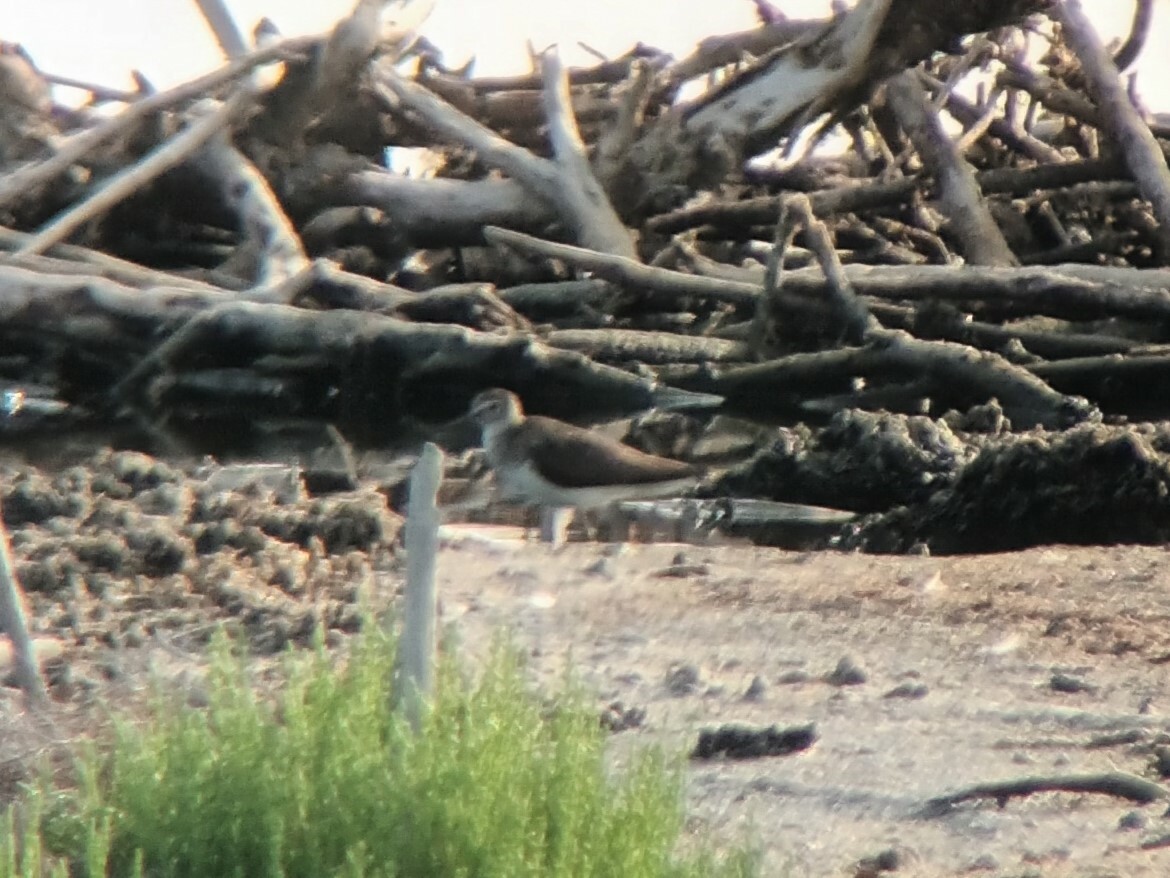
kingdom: Animalia
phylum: Chordata
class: Aves
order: Charadriiformes
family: Scolopacidae
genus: Tringa
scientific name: Tringa ochropus
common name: Green sandpiper
